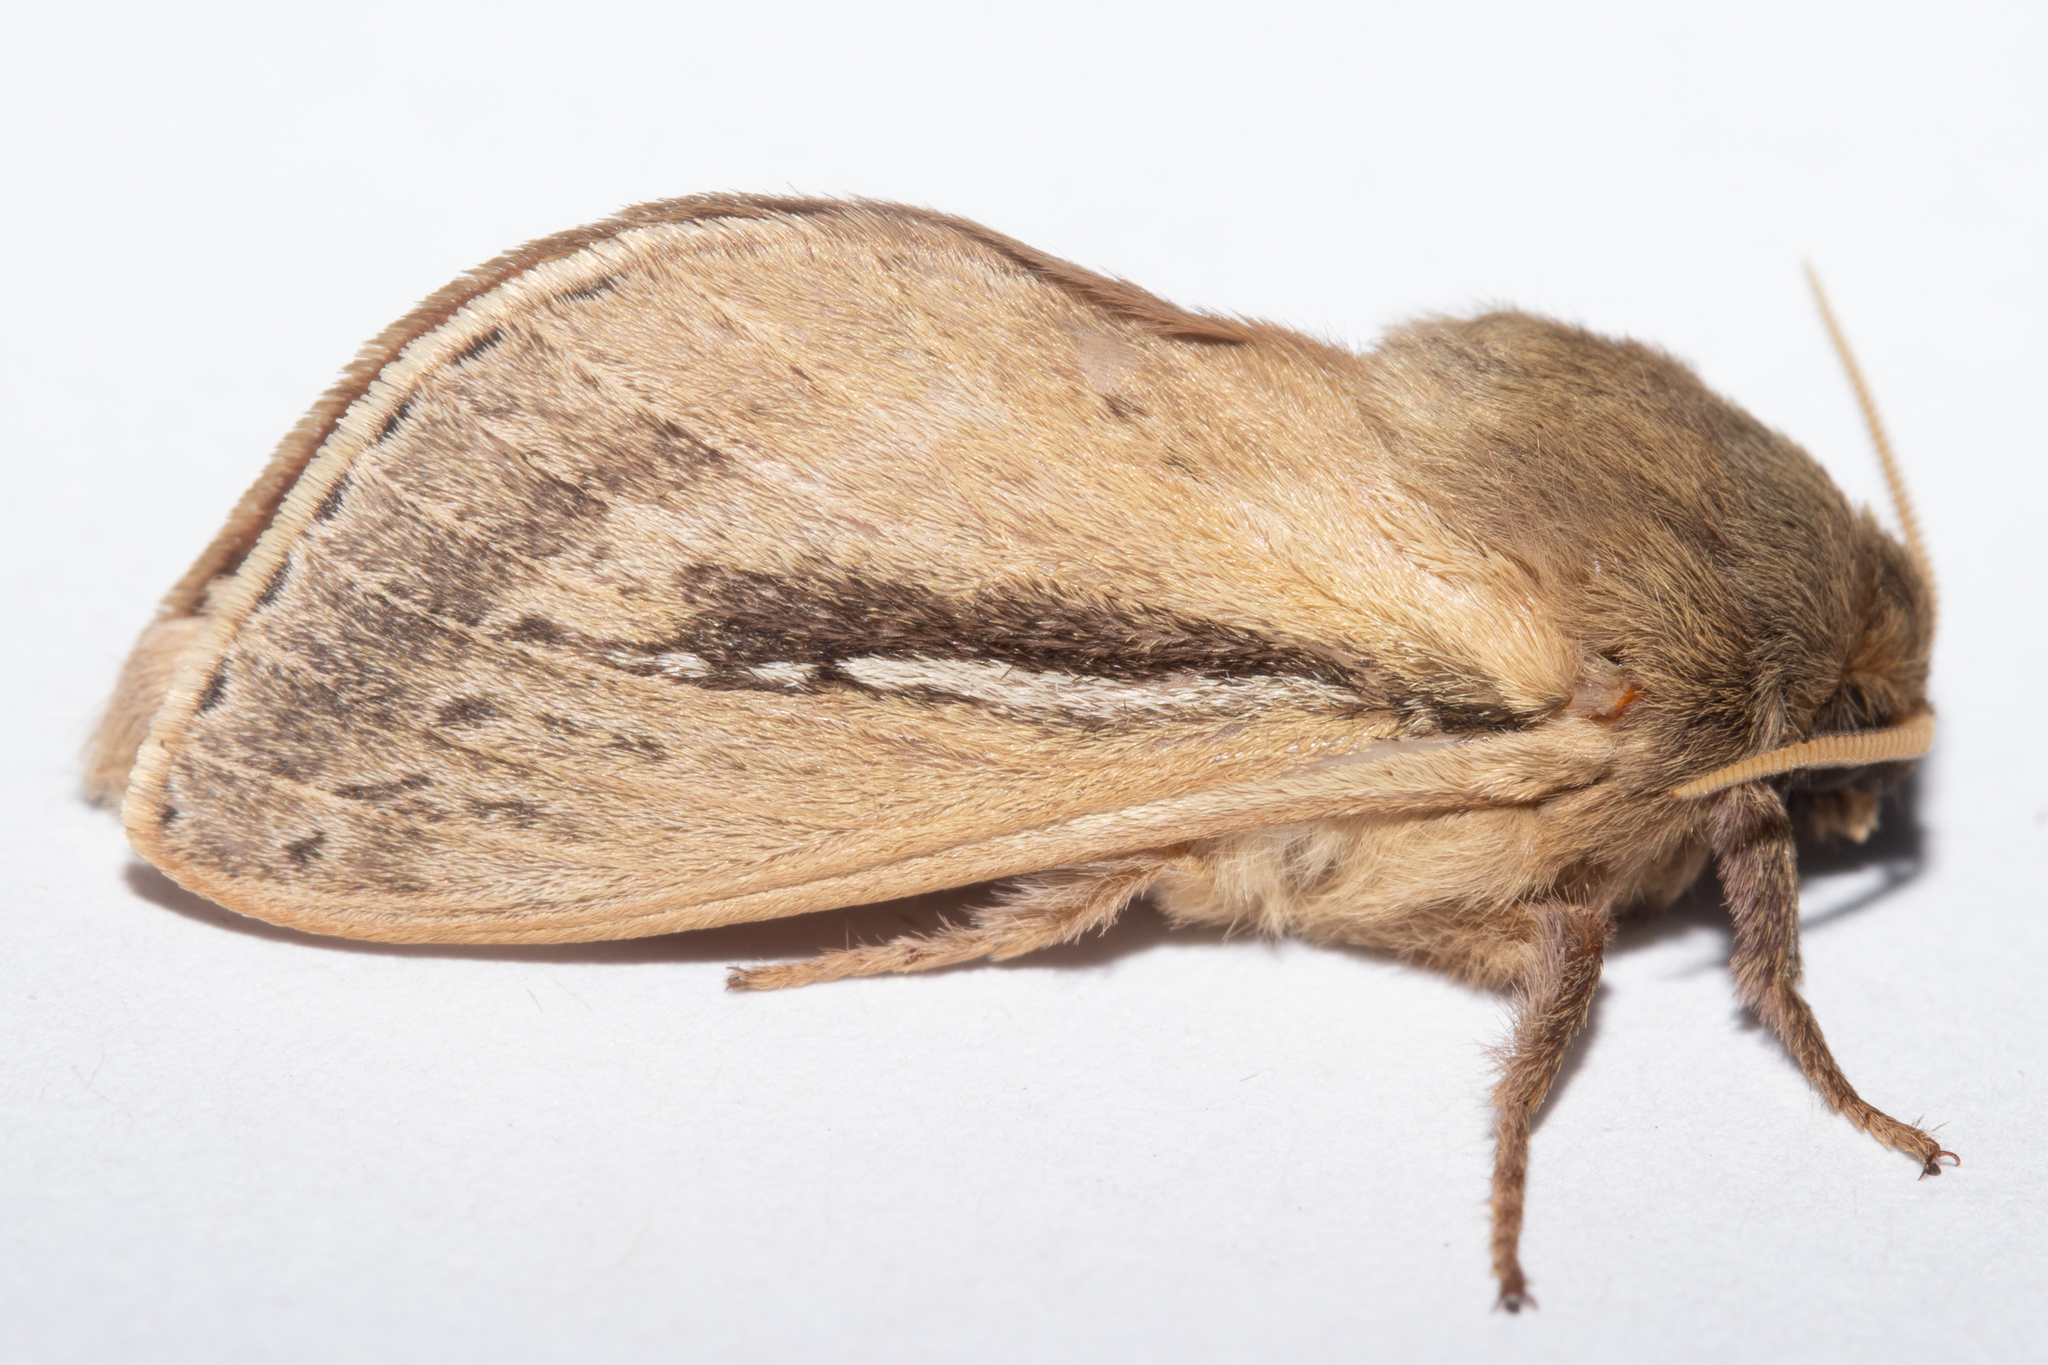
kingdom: Animalia
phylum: Arthropoda
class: Insecta
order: Lepidoptera
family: Hepialidae
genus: Wiseana
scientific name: Wiseana umbraculatus
